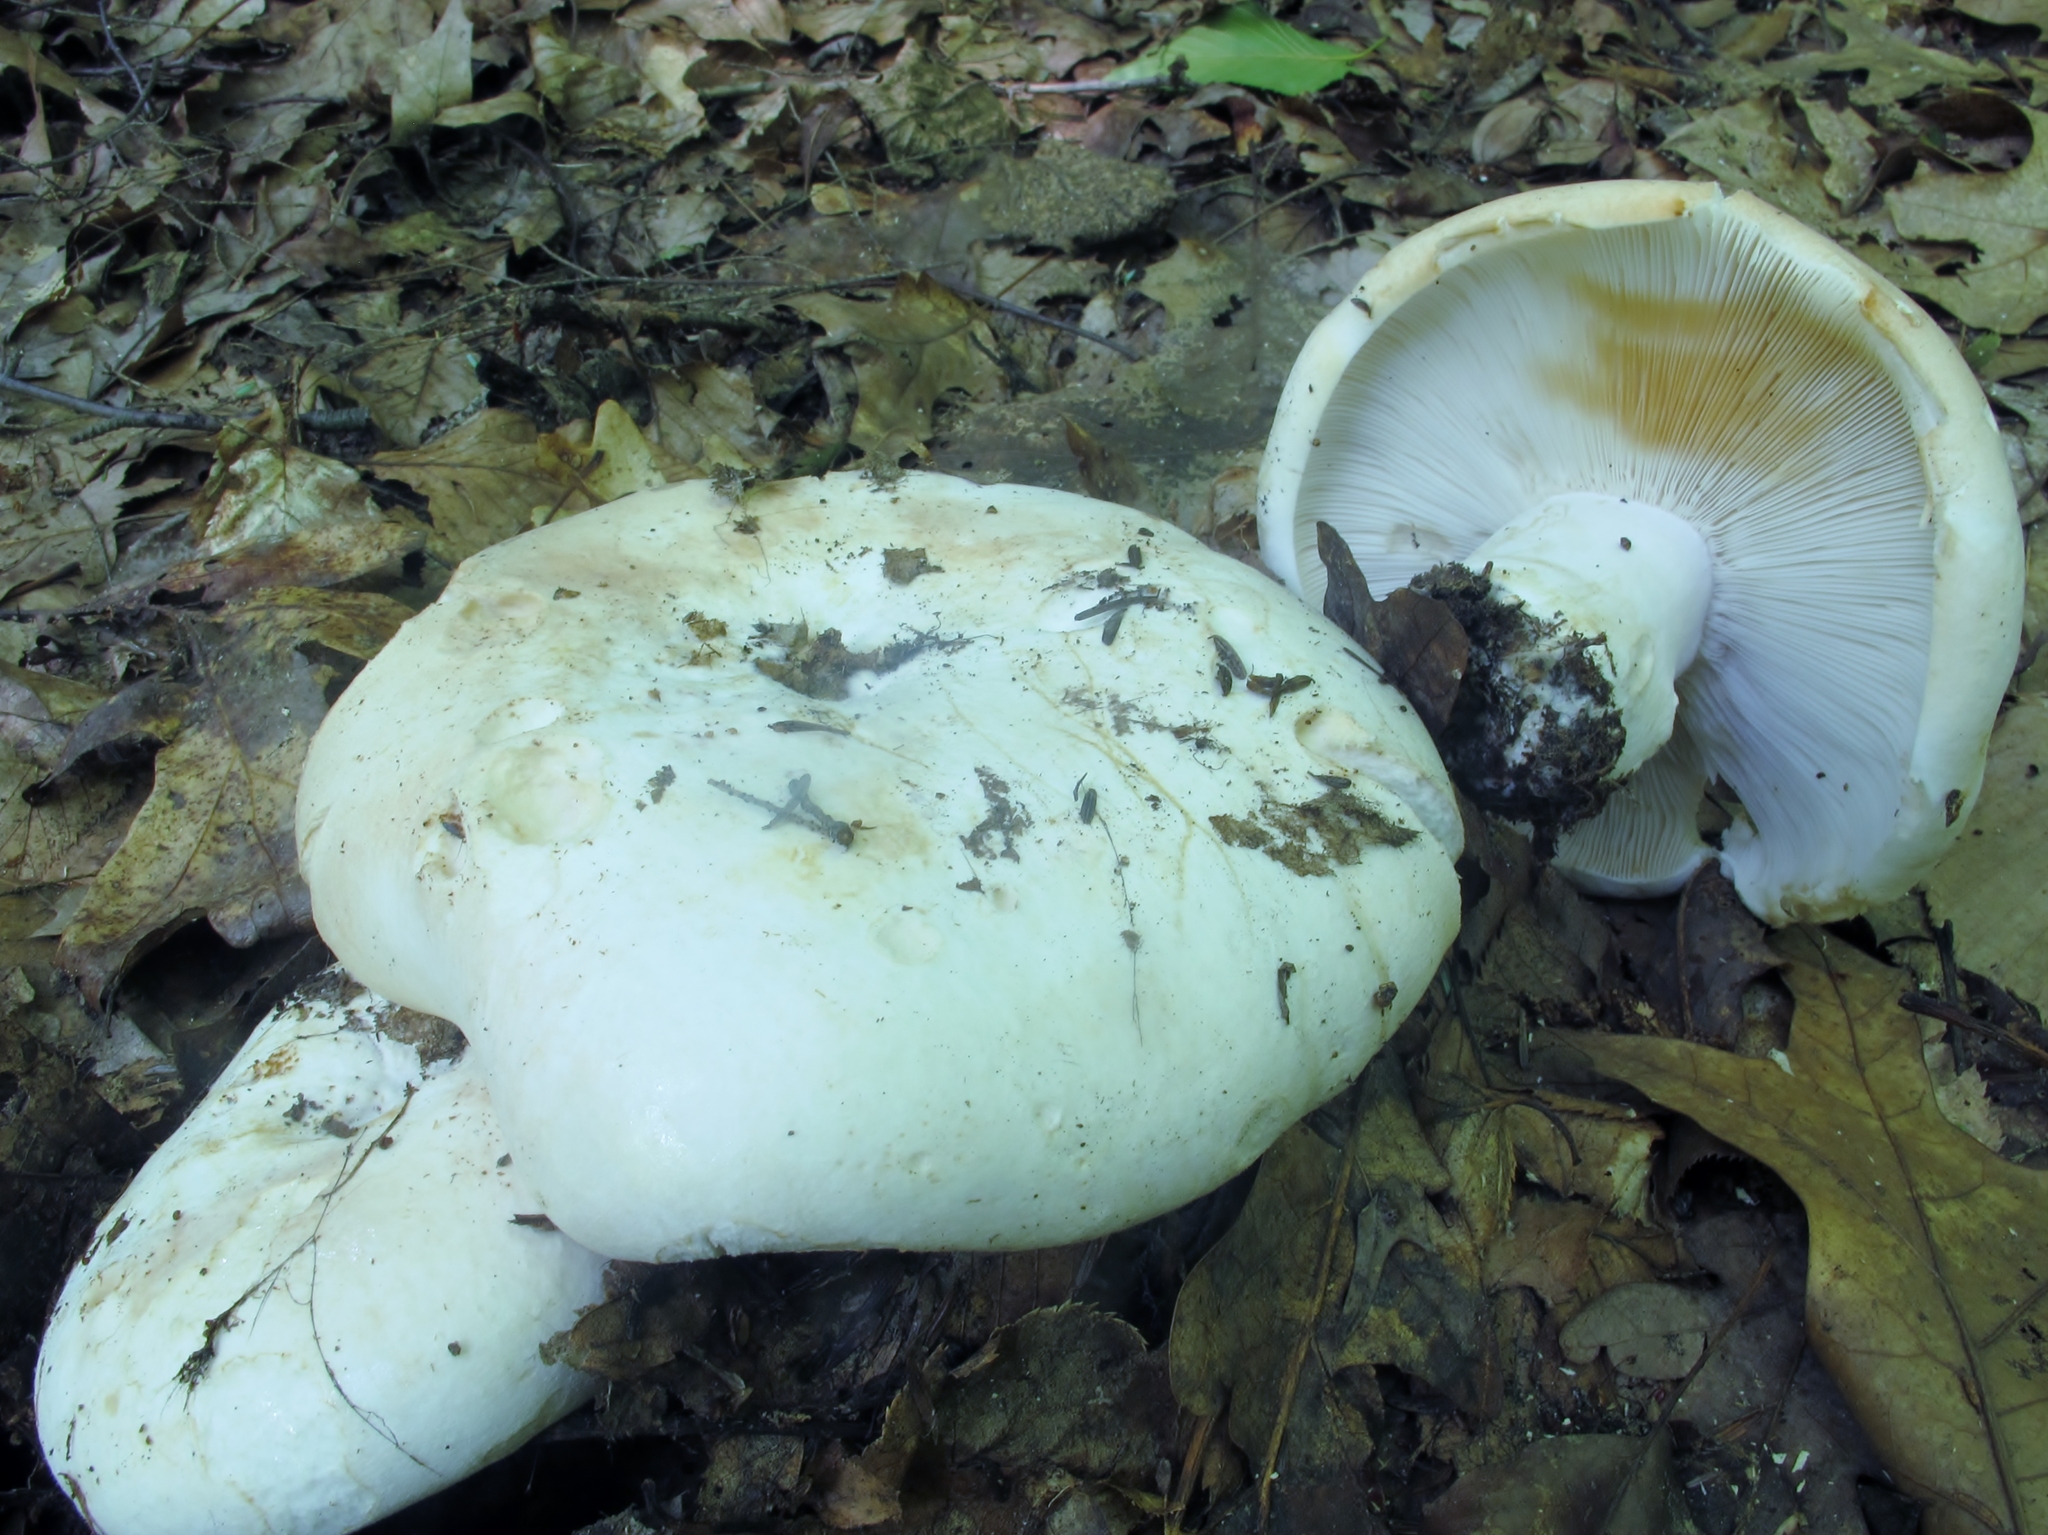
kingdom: Fungi
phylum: Basidiomycota
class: Agaricomycetes
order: Russulales
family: Russulaceae
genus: Russula
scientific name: Russula compacta
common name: Fishbiscuit russula
